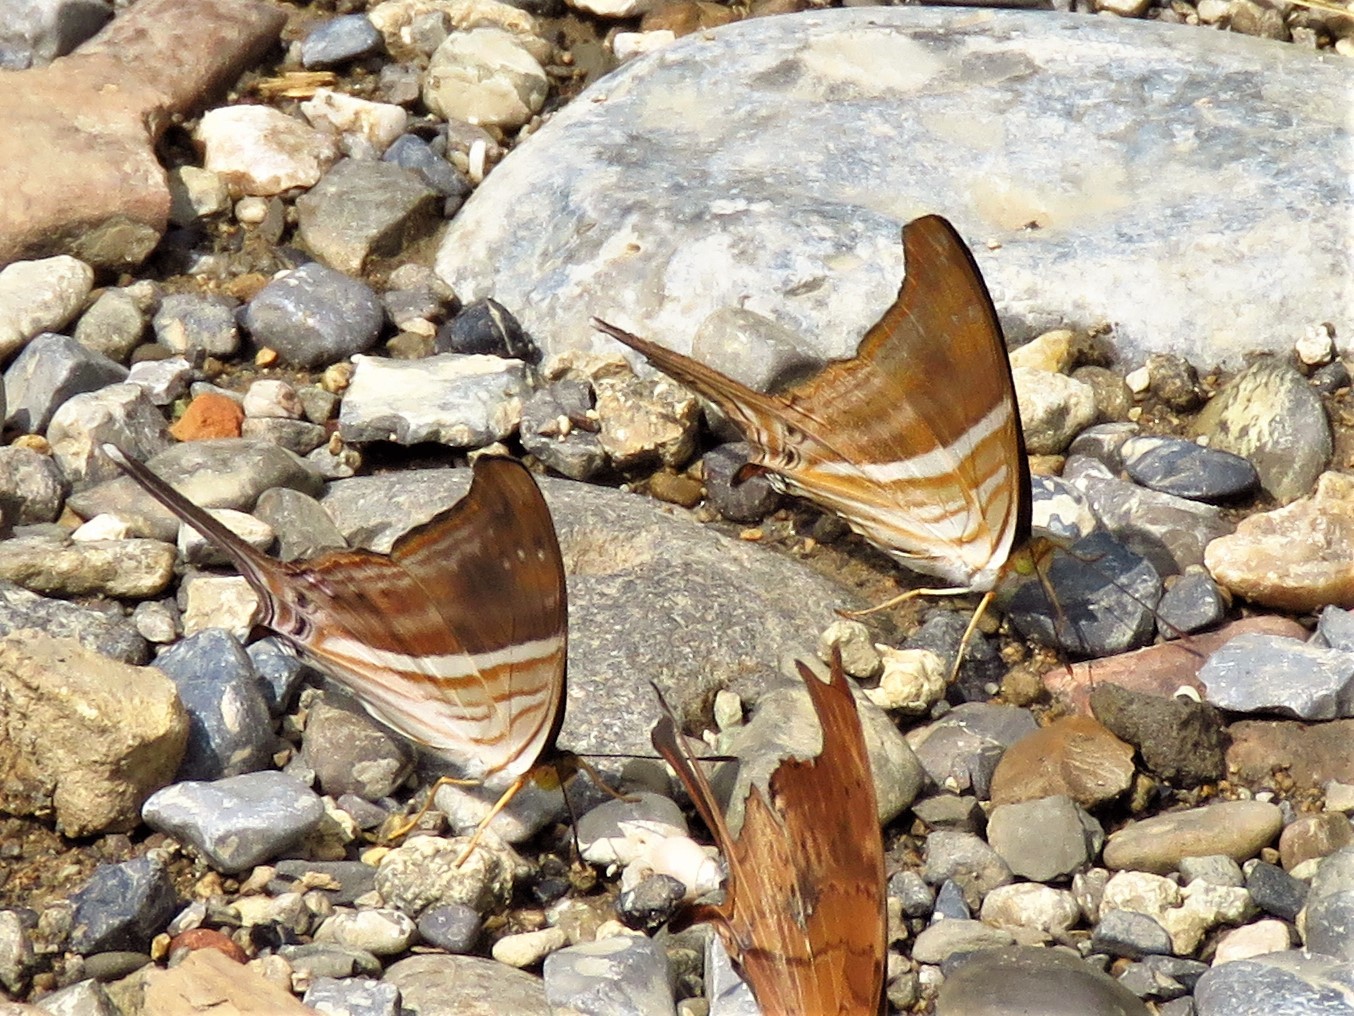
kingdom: Animalia
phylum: Arthropoda
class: Insecta
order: Lepidoptera
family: Nymphalidae
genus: Marpesia
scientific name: Marpesia chiron
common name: Many-banded daggerwing
